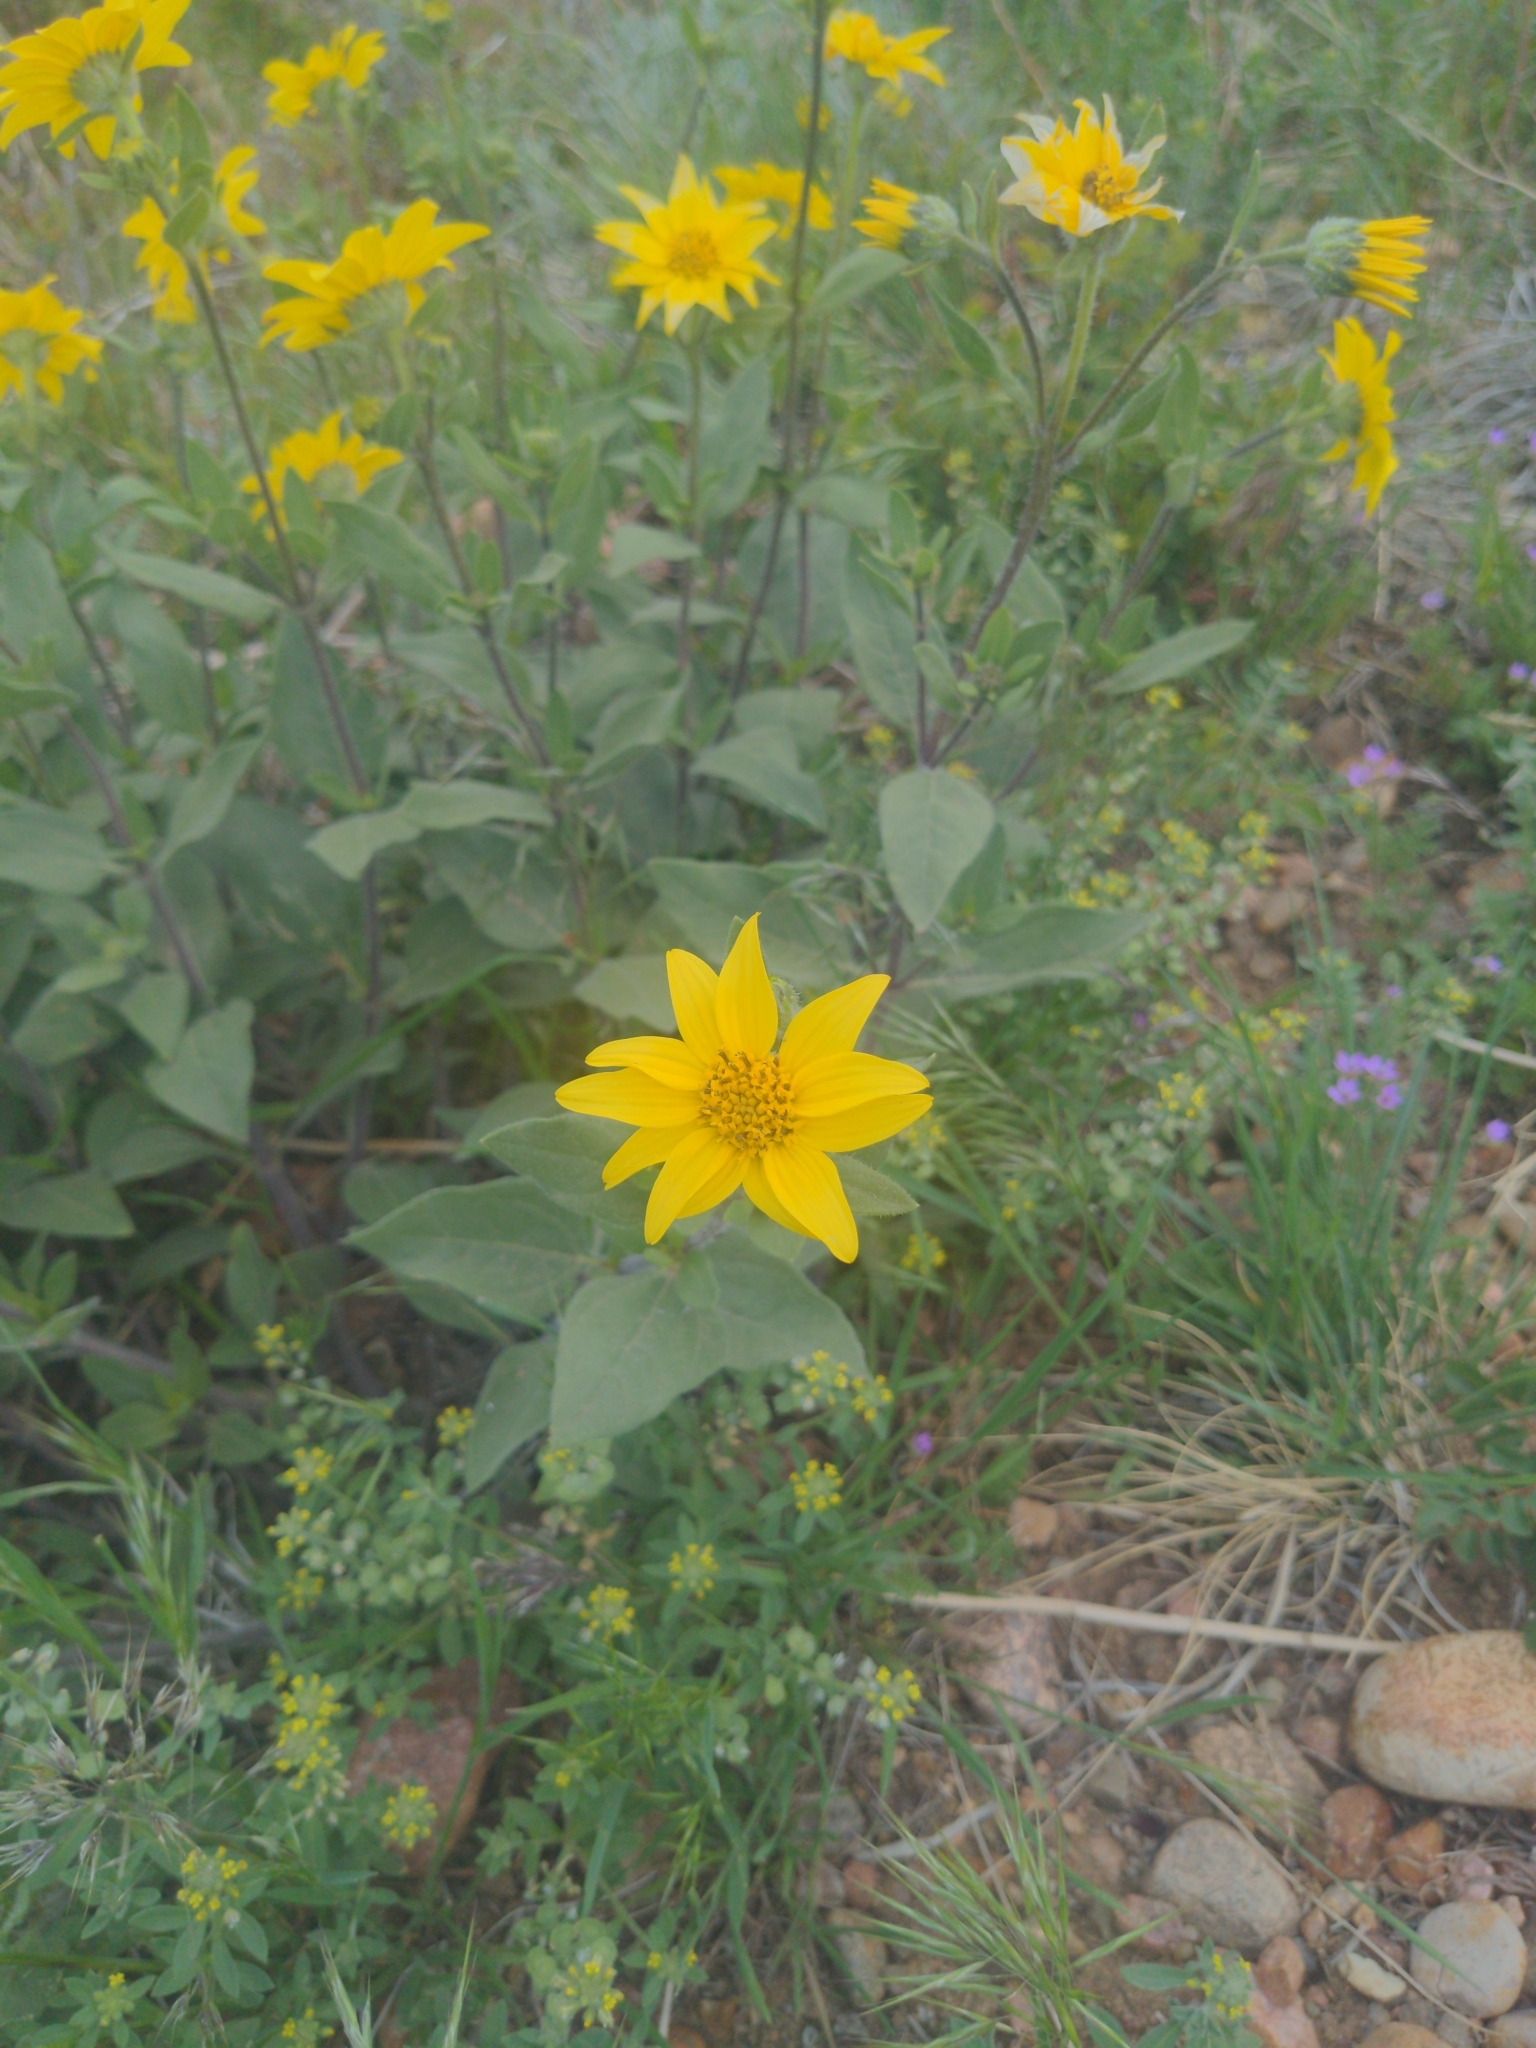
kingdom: Plantae
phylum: Tracheophyta
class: Magnoliopsida
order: Asterales
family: Asteraceae
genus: Helianthus
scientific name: Helianthus pumilus
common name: Dwarf sunflower
